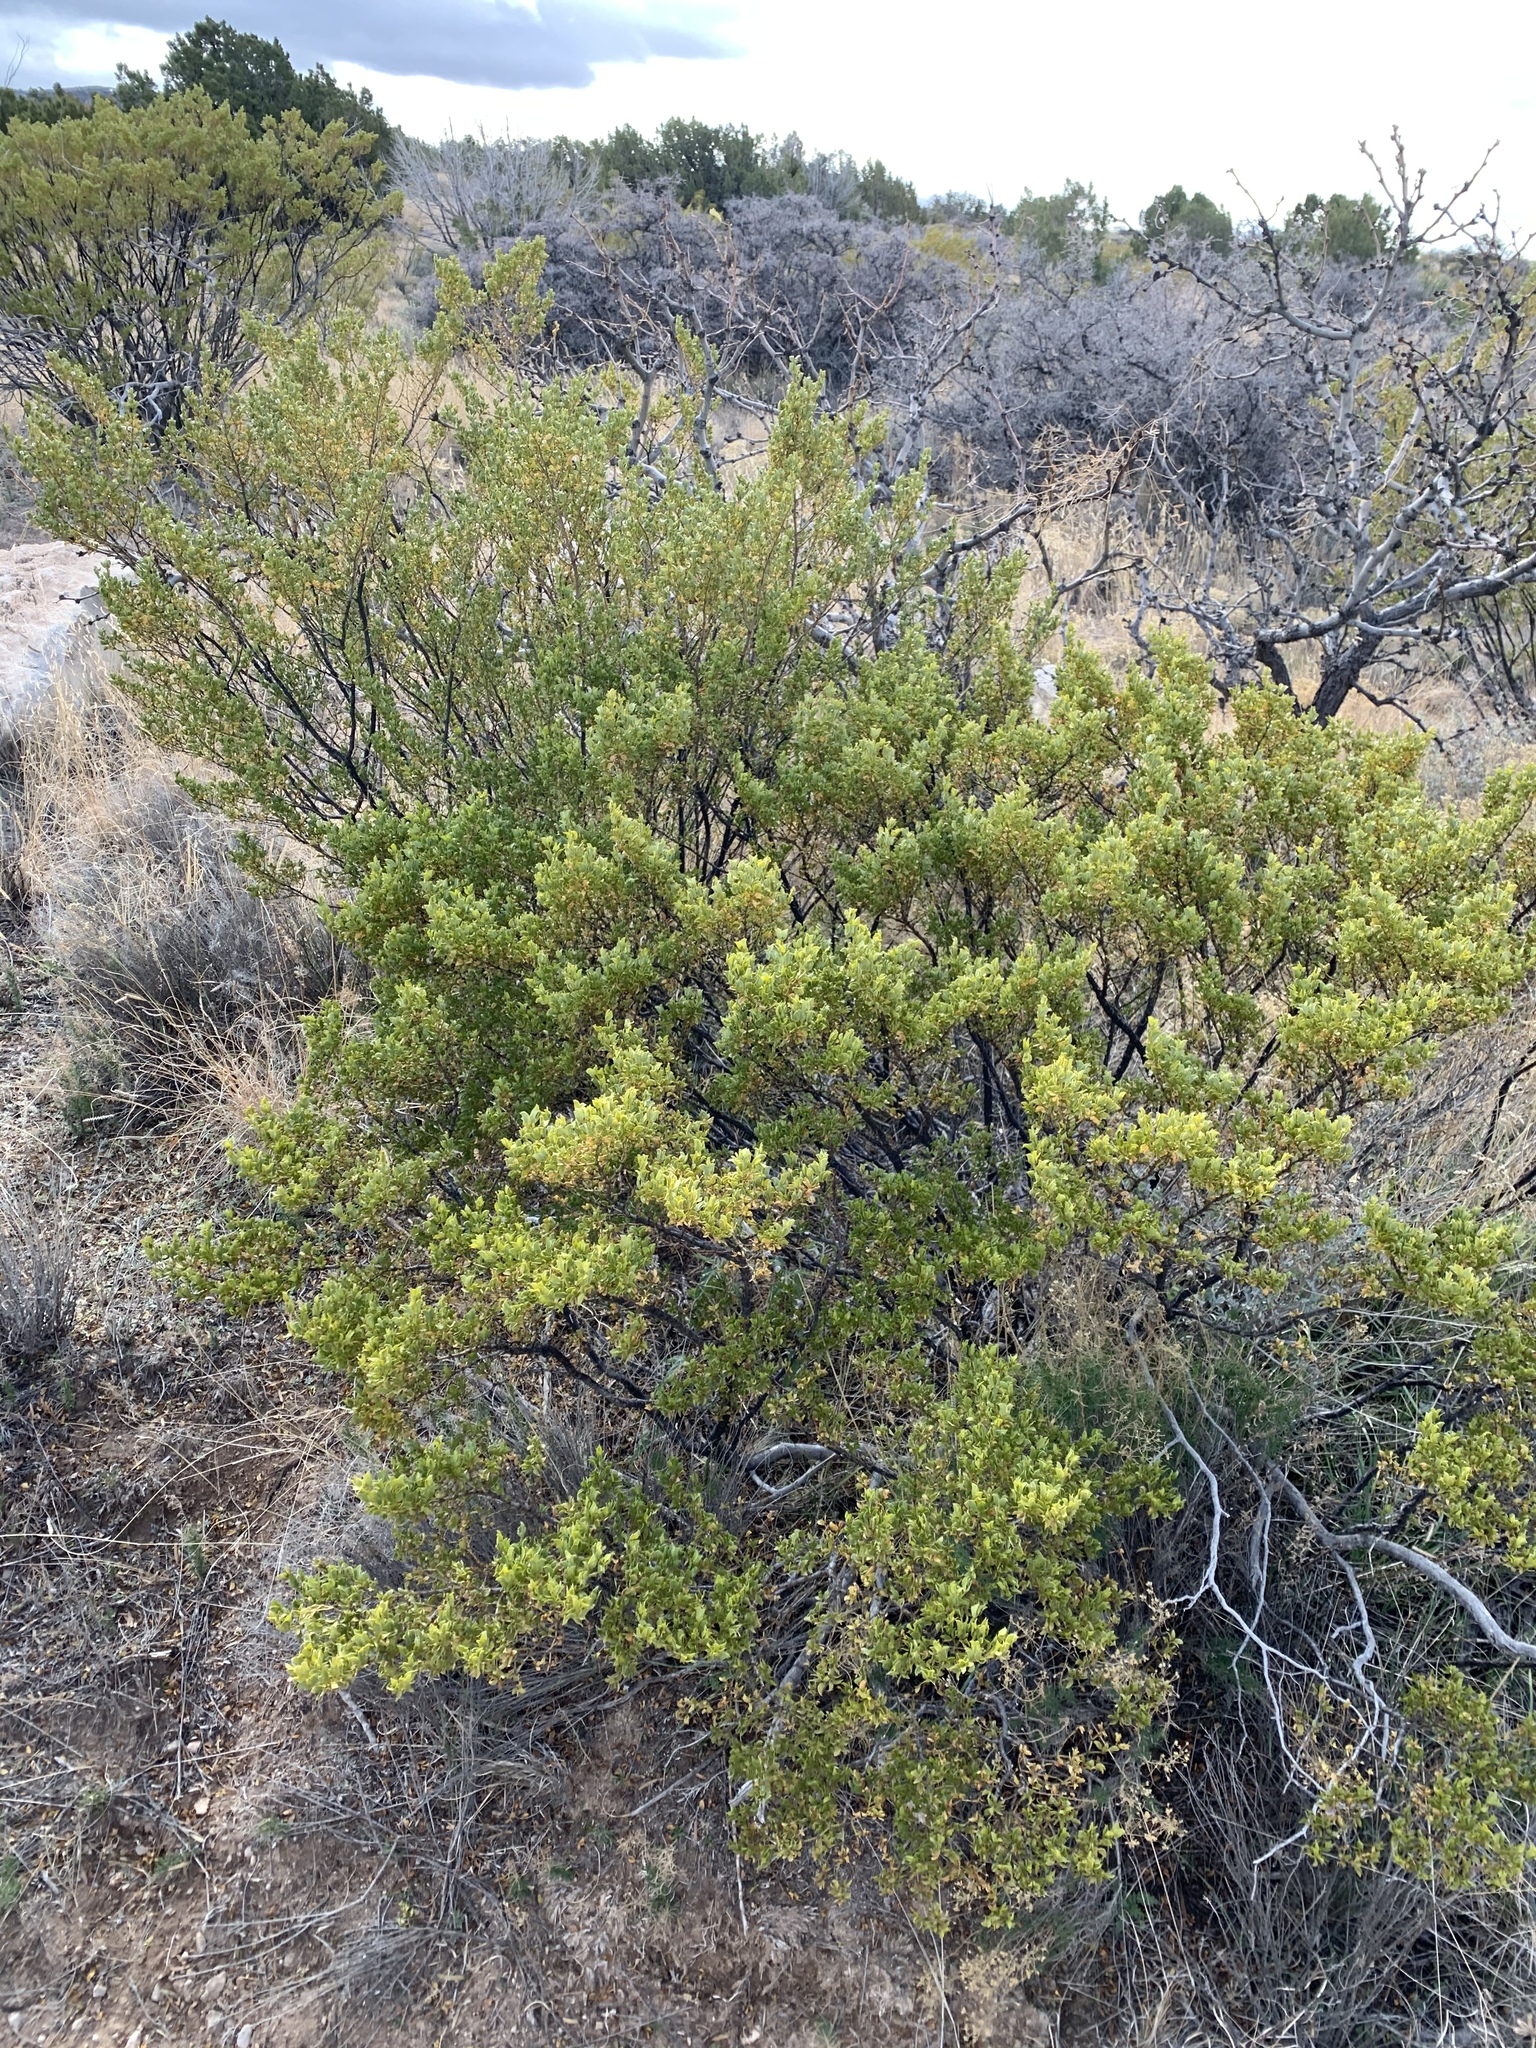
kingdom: Plantae
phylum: Tracheophyta
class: Magnoliopsida
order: Zygophyllales
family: Zygophyllaceae
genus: Larrea
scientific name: Larrea tridentata
